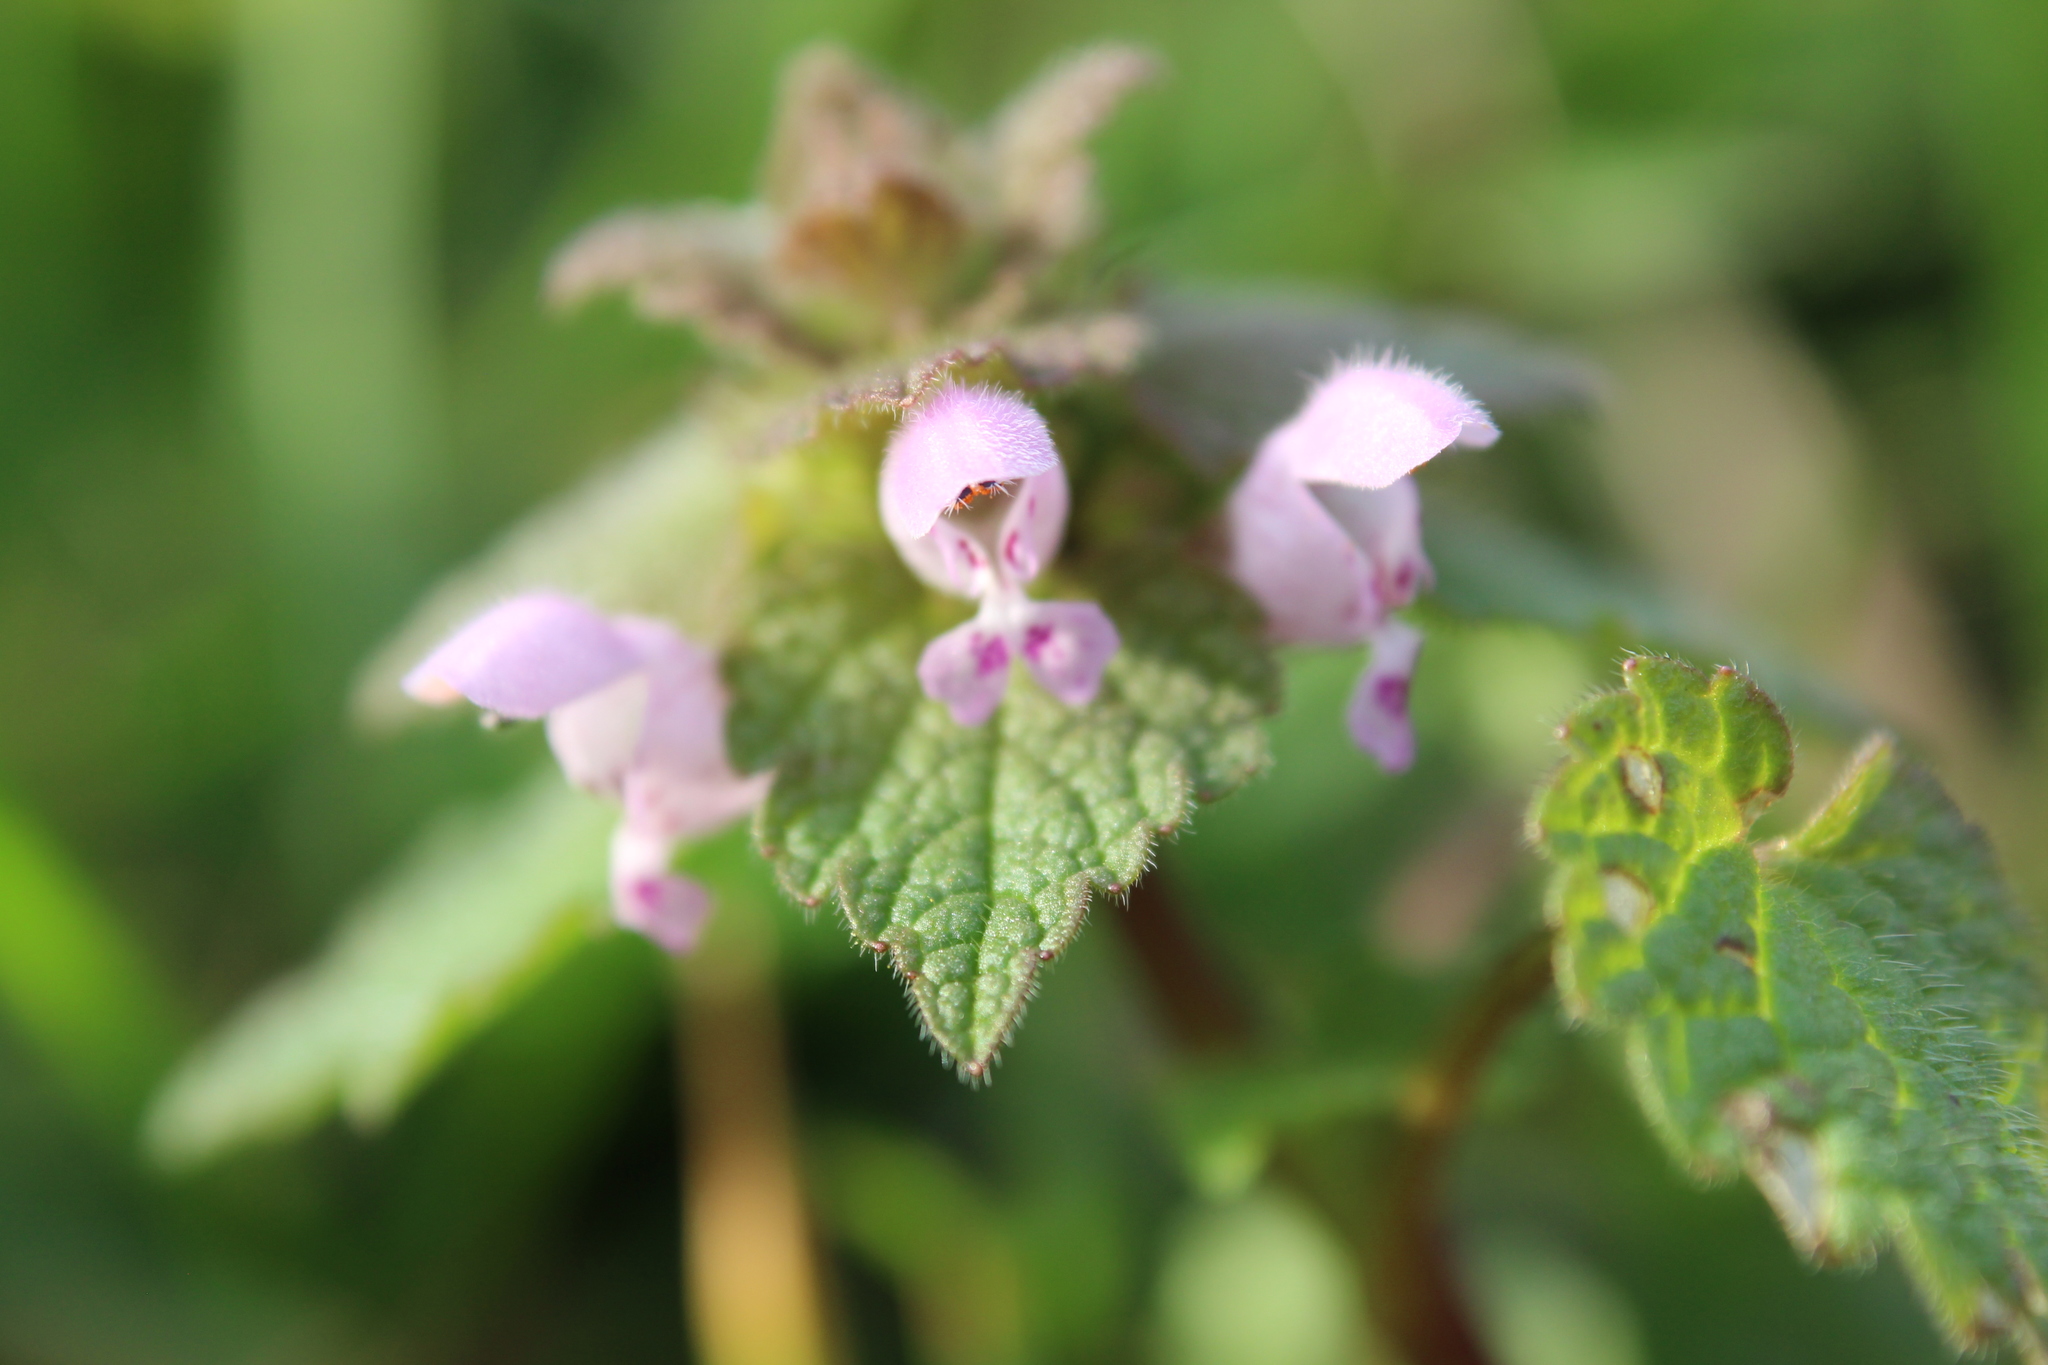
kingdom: Plantae
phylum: Tracheophyta
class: Magnoliopsida
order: Lamiales
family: Lamiaceae
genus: Lamium
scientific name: Lamium purpureum
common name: Red dead-nettle
